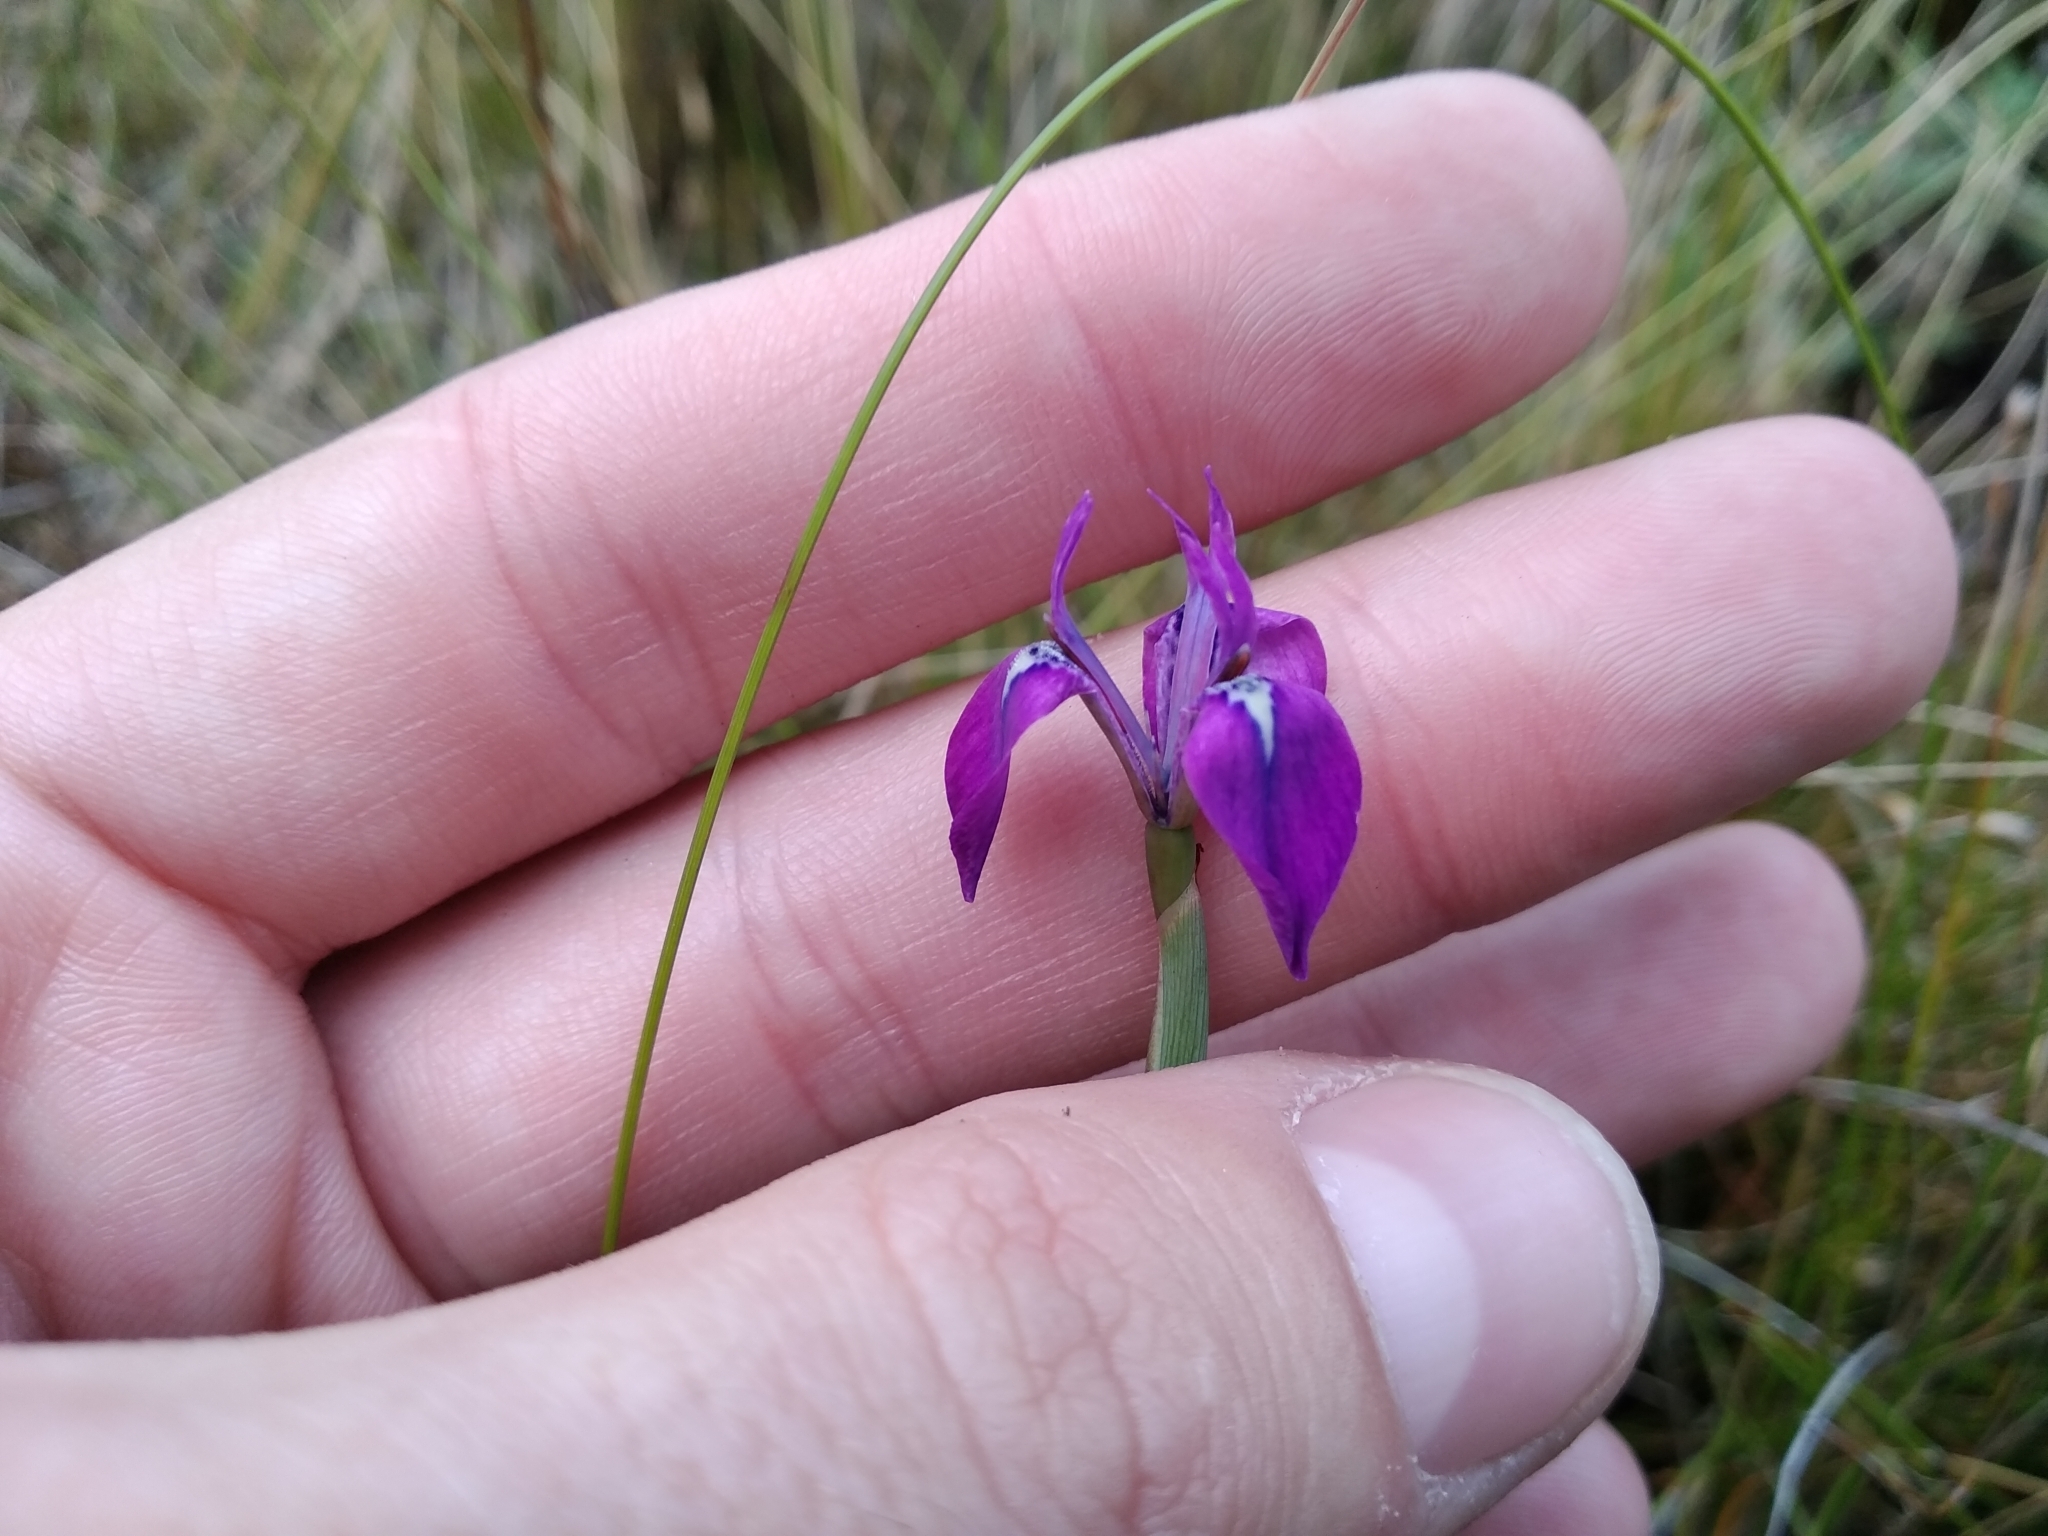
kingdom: Plantae
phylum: Tracheophyta
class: Liliopsida
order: Asparagales
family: Iridaceae
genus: Moraea
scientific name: Moraea tripetala
